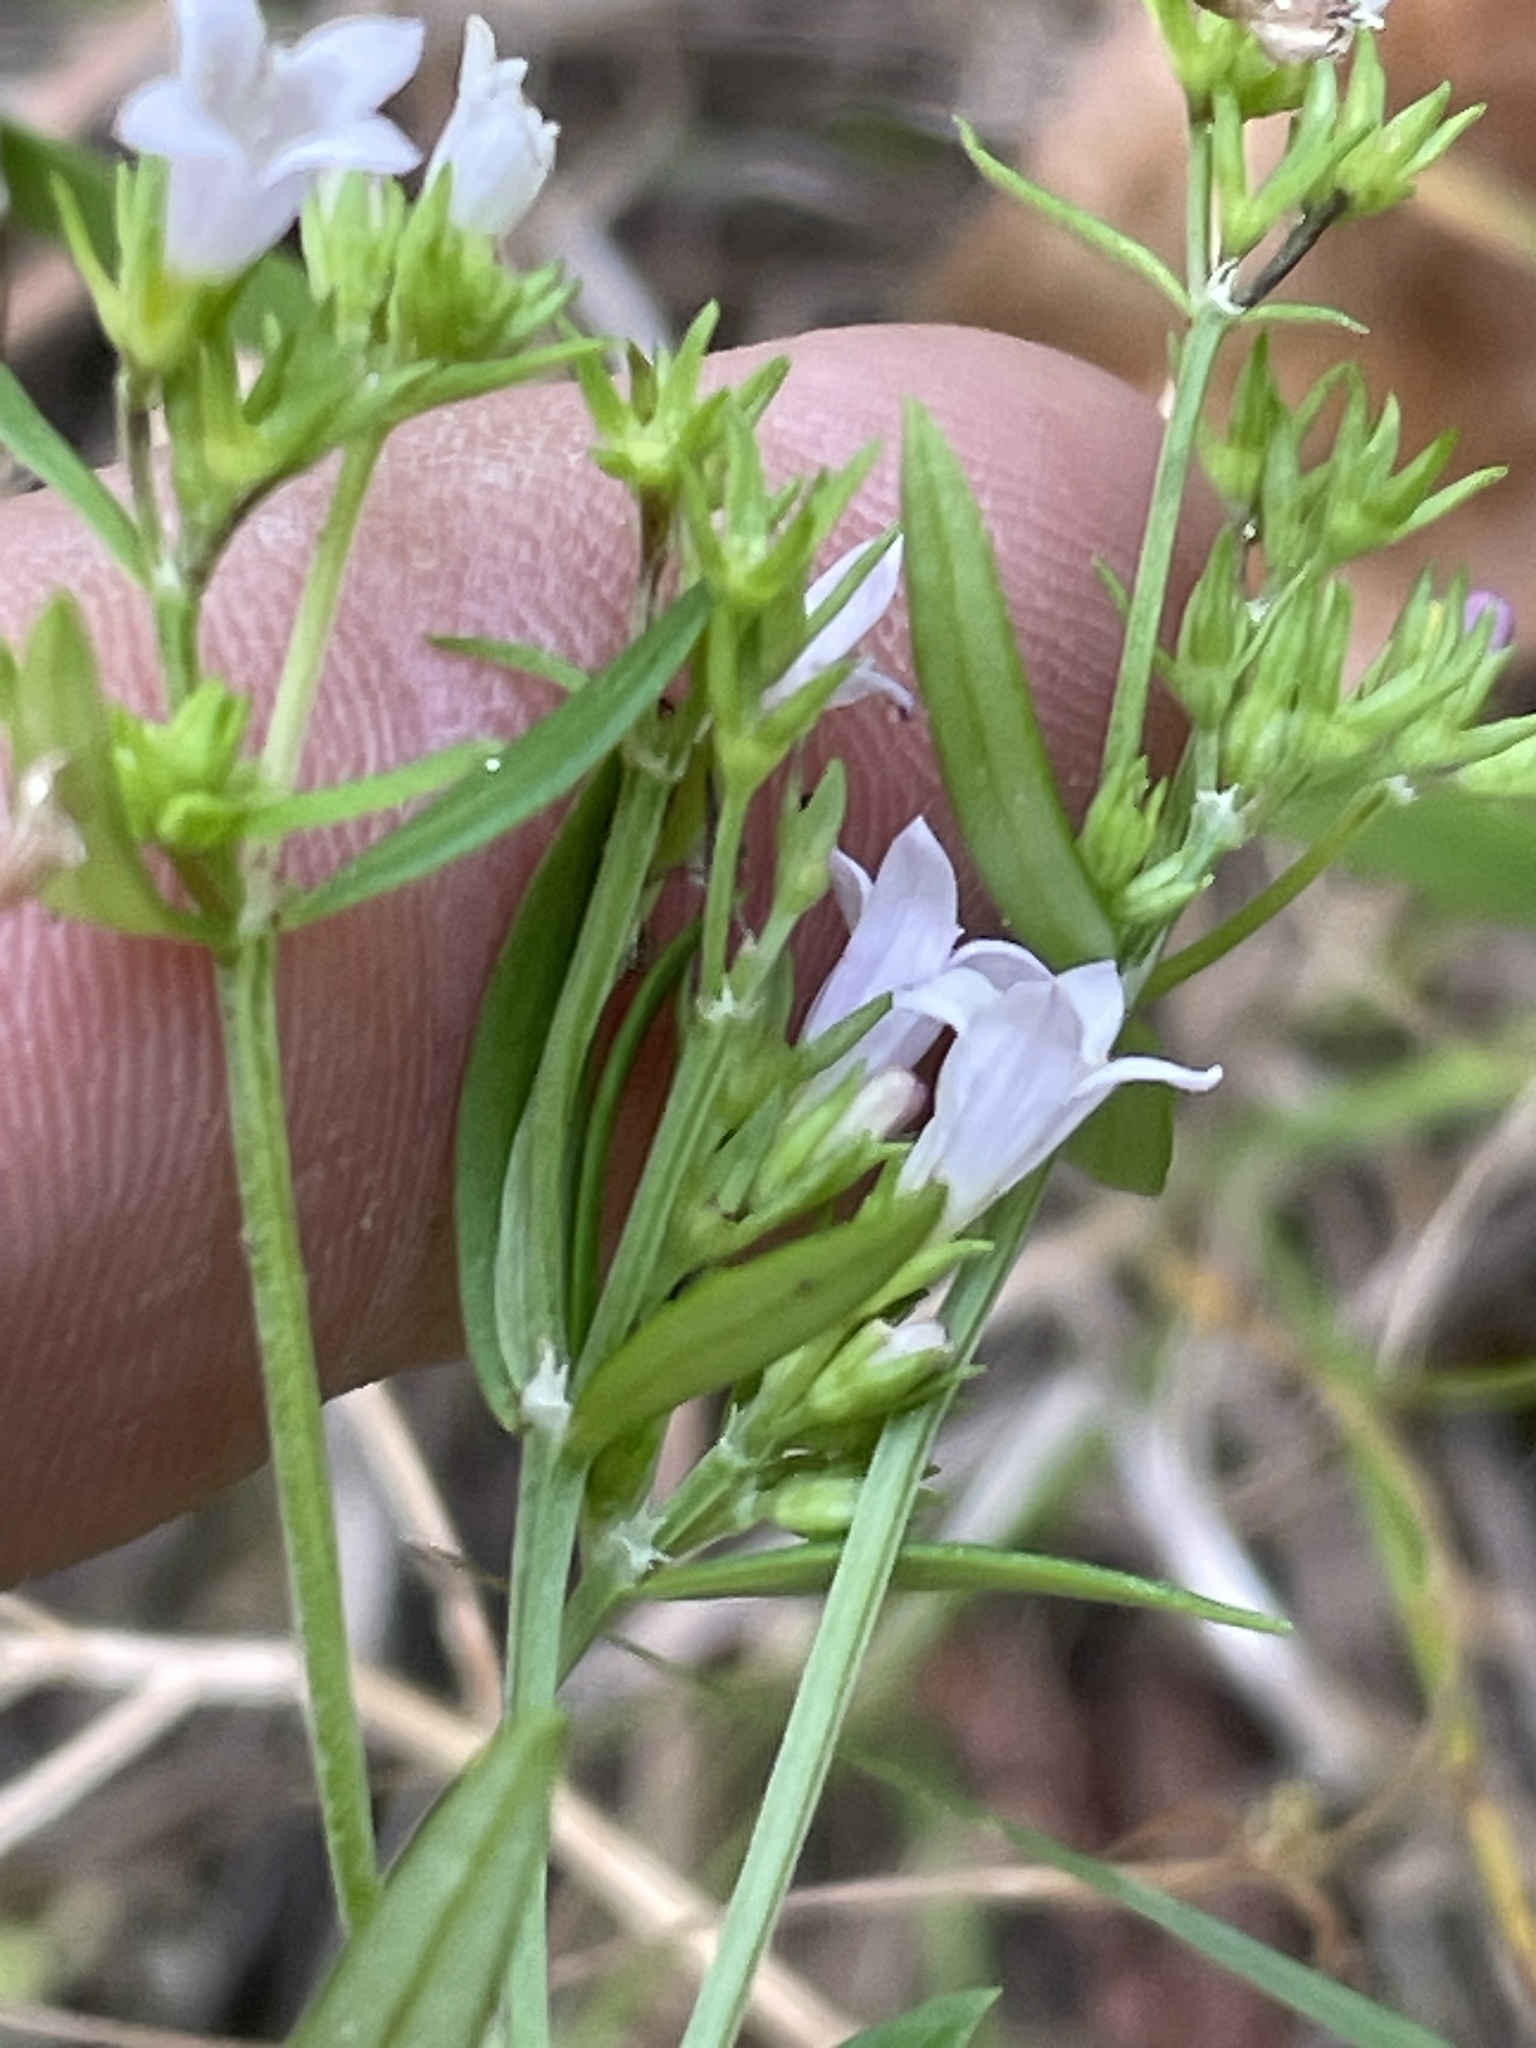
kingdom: Plantae
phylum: Tracheophyta
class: Magnoliopsida
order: Gentianales
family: Rubiaceae
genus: Houstonia
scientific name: Houstonia longifolia
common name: Long-leaved bluets
